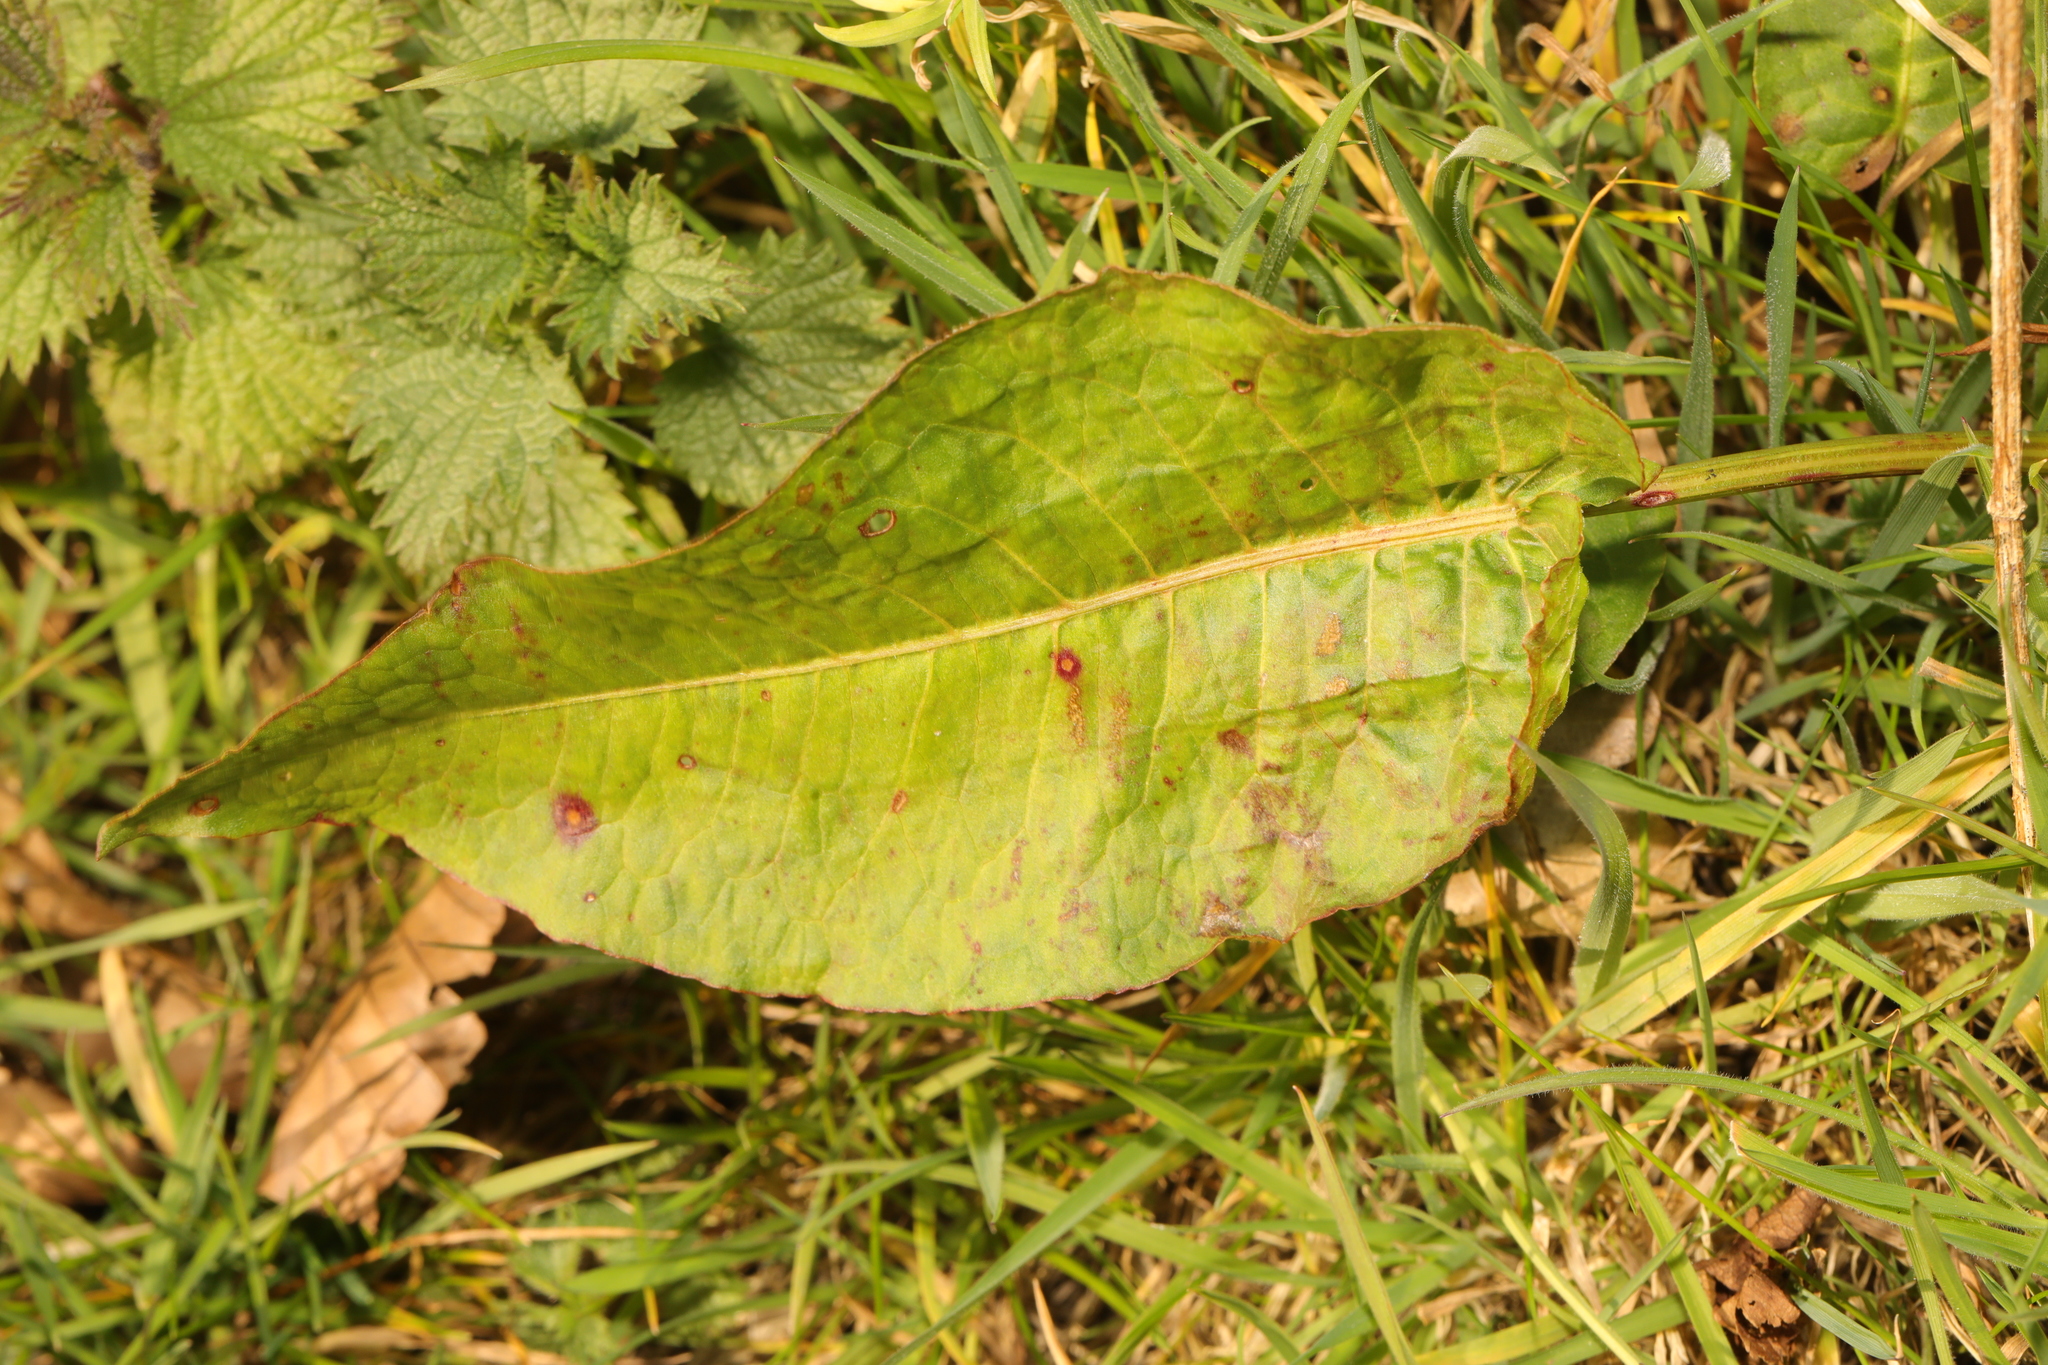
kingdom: Plantae
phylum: Tracheophyta
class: Magnoliopsida
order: Caryophyllales
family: Polygonaceae
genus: Rumex
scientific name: Rumex obtusifolius
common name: Bitter dock
